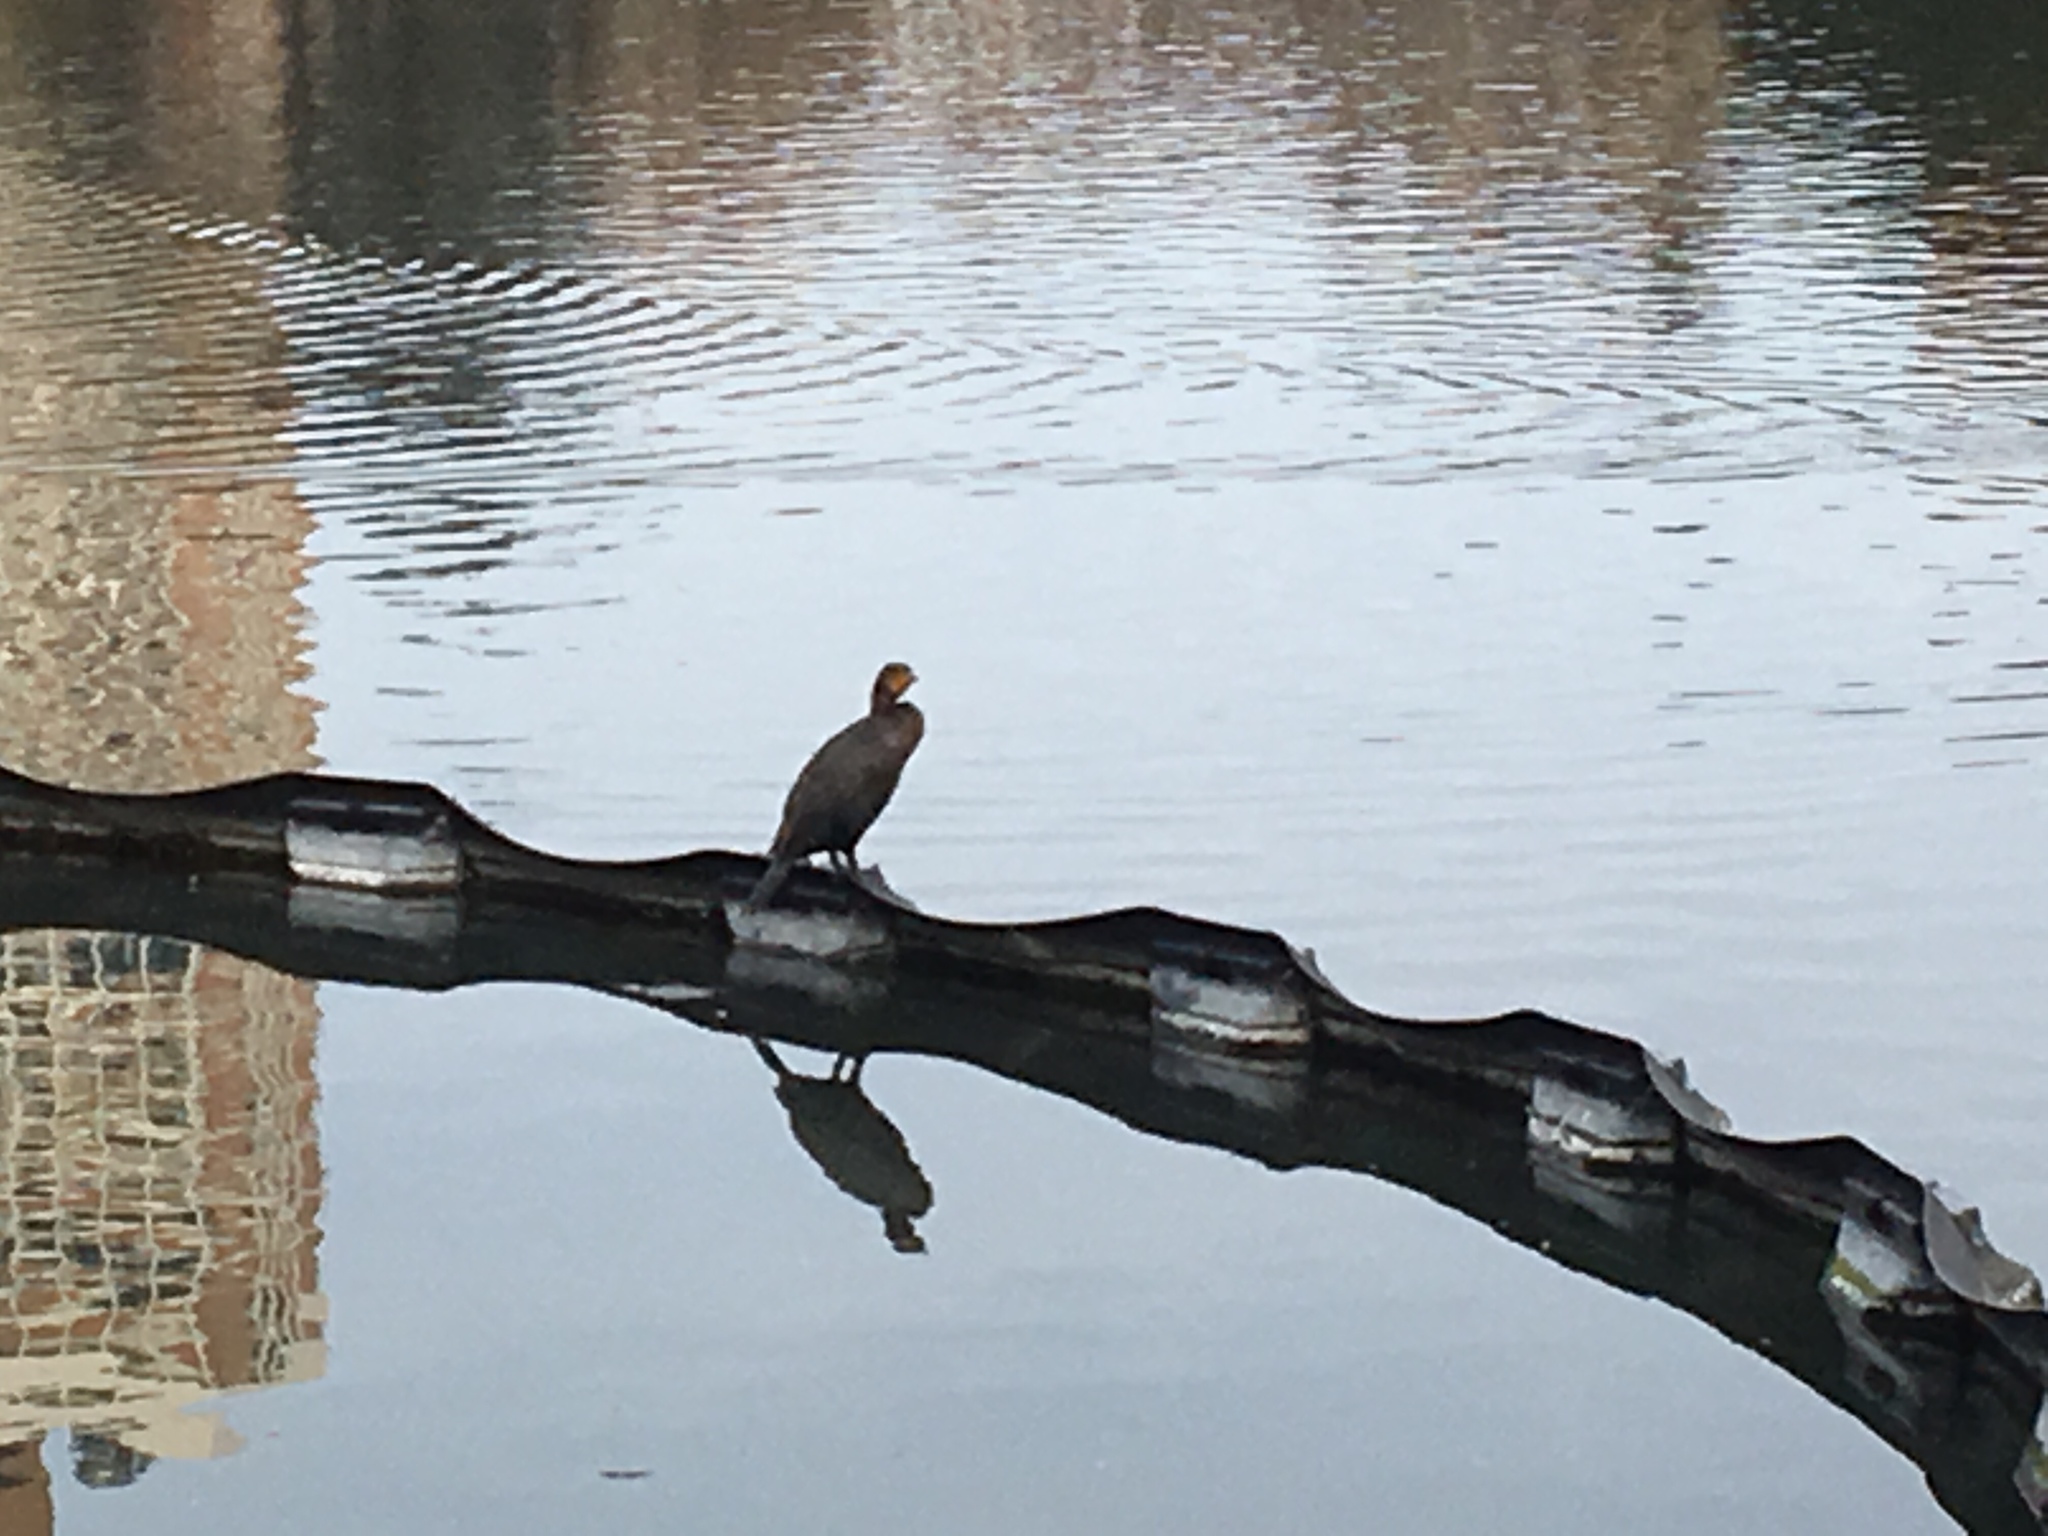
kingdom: Animalia
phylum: Chordata
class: Aves
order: Suliformes
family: Phalacrocoracidae
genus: Phalacrocorax
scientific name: Phalacrocorax auritus
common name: Double-crested cormorant
